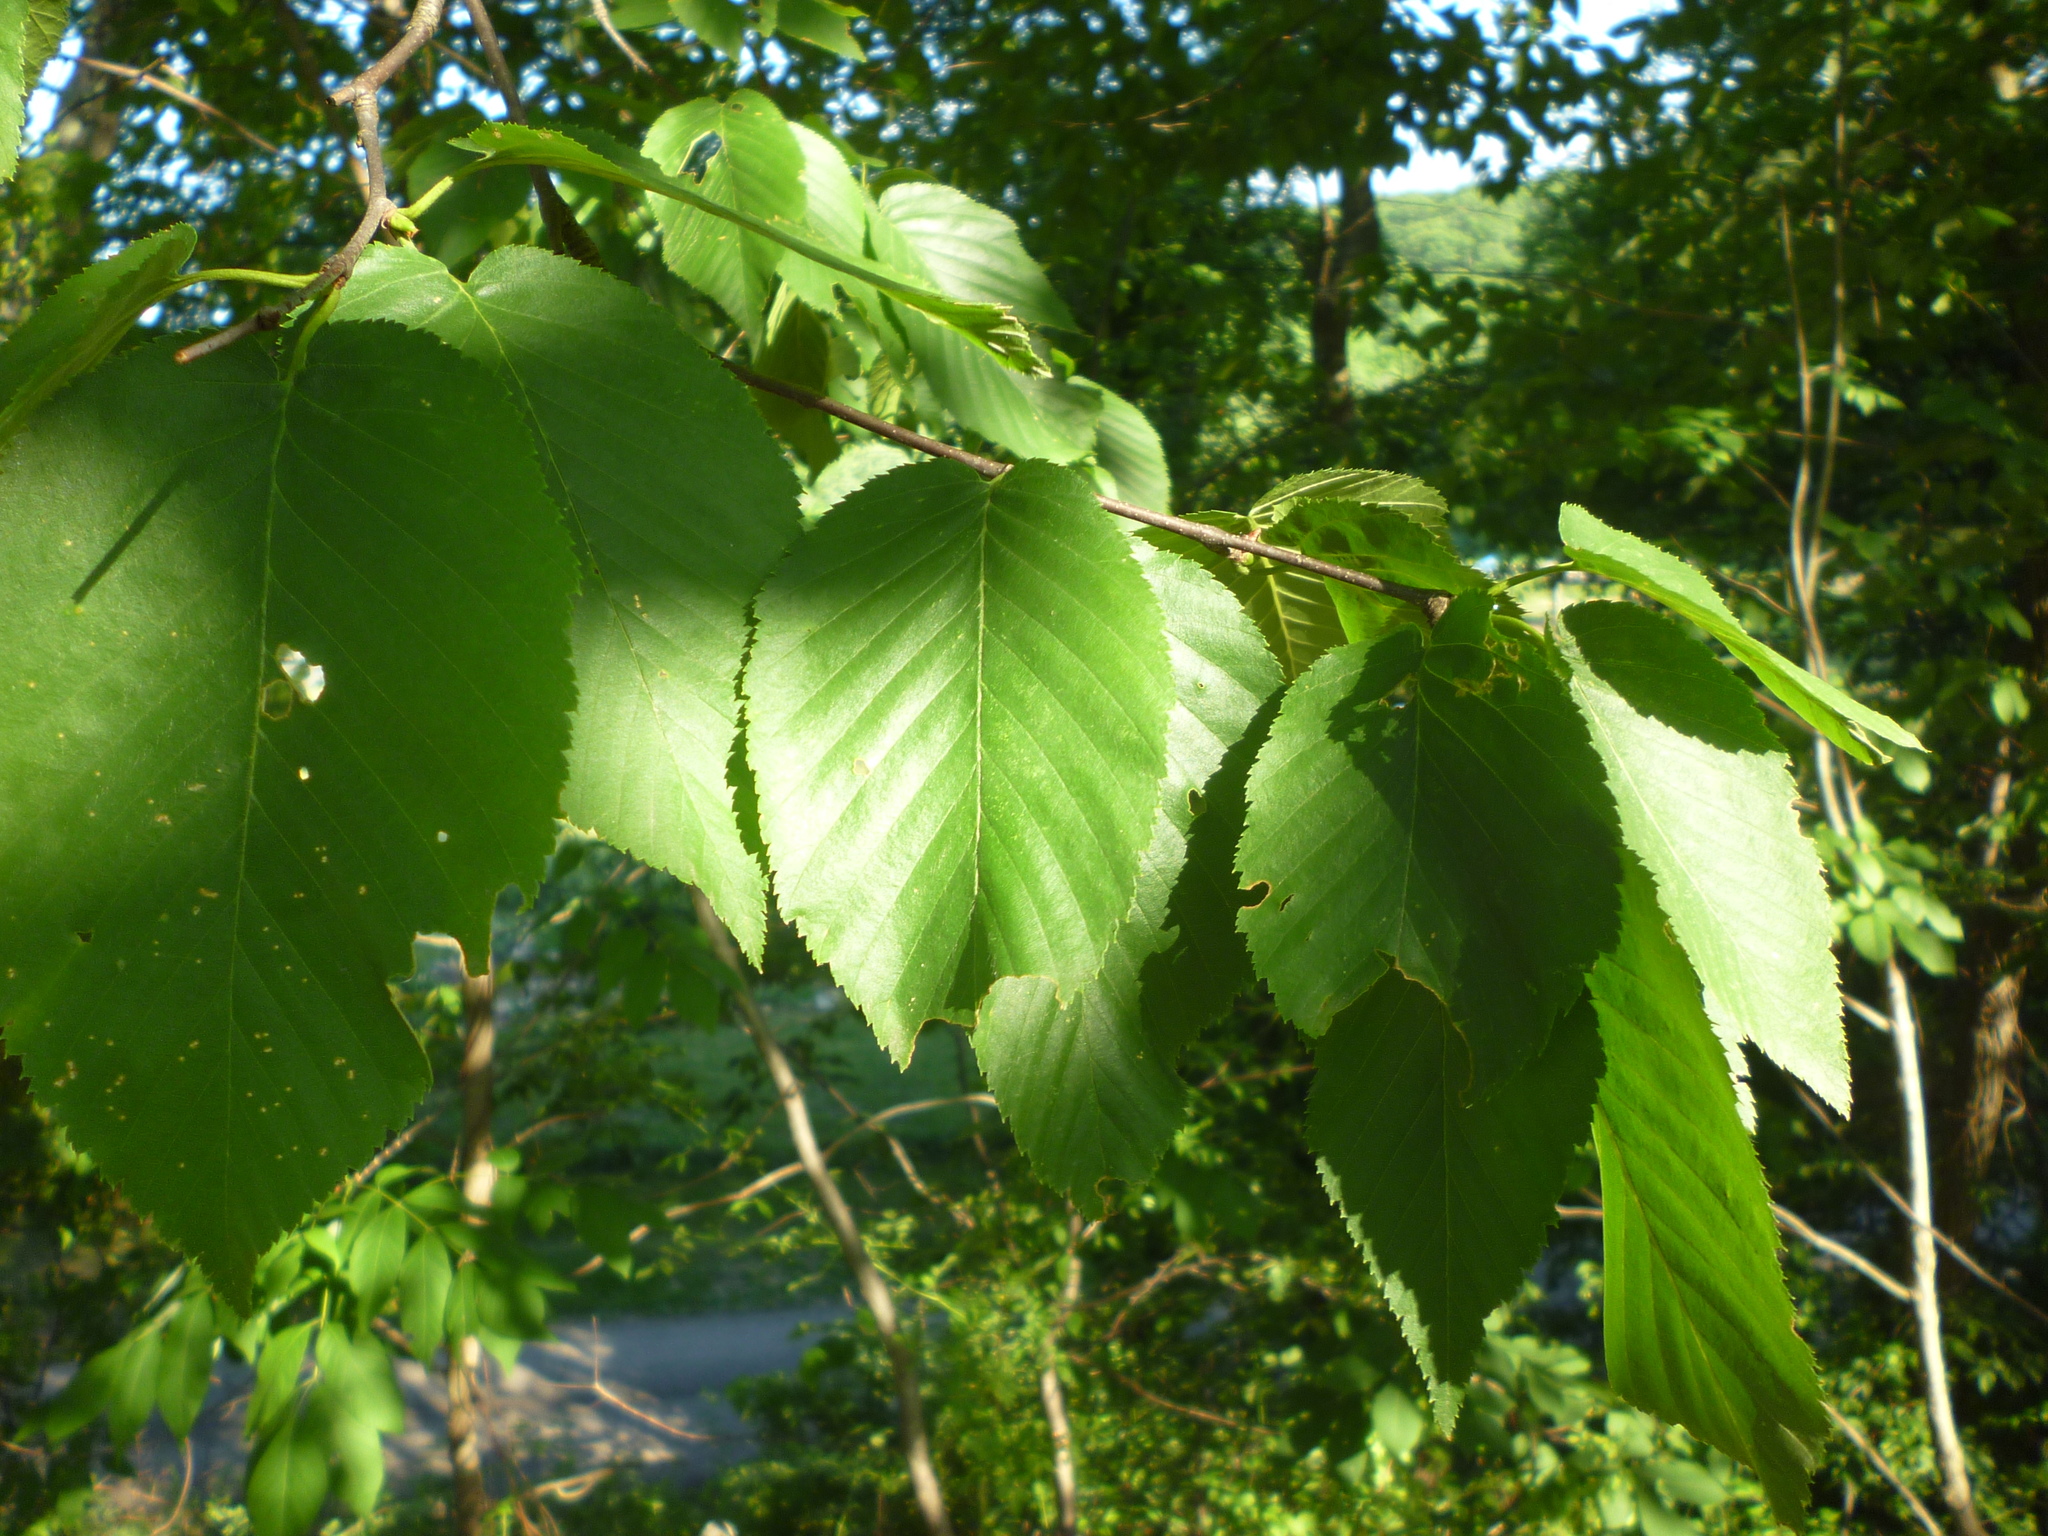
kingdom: Plantae
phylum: Tracheophyta
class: Magnoliopsida
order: Fagales
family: Betulaceae
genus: Betula
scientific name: Betula lenta
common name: Black birch
